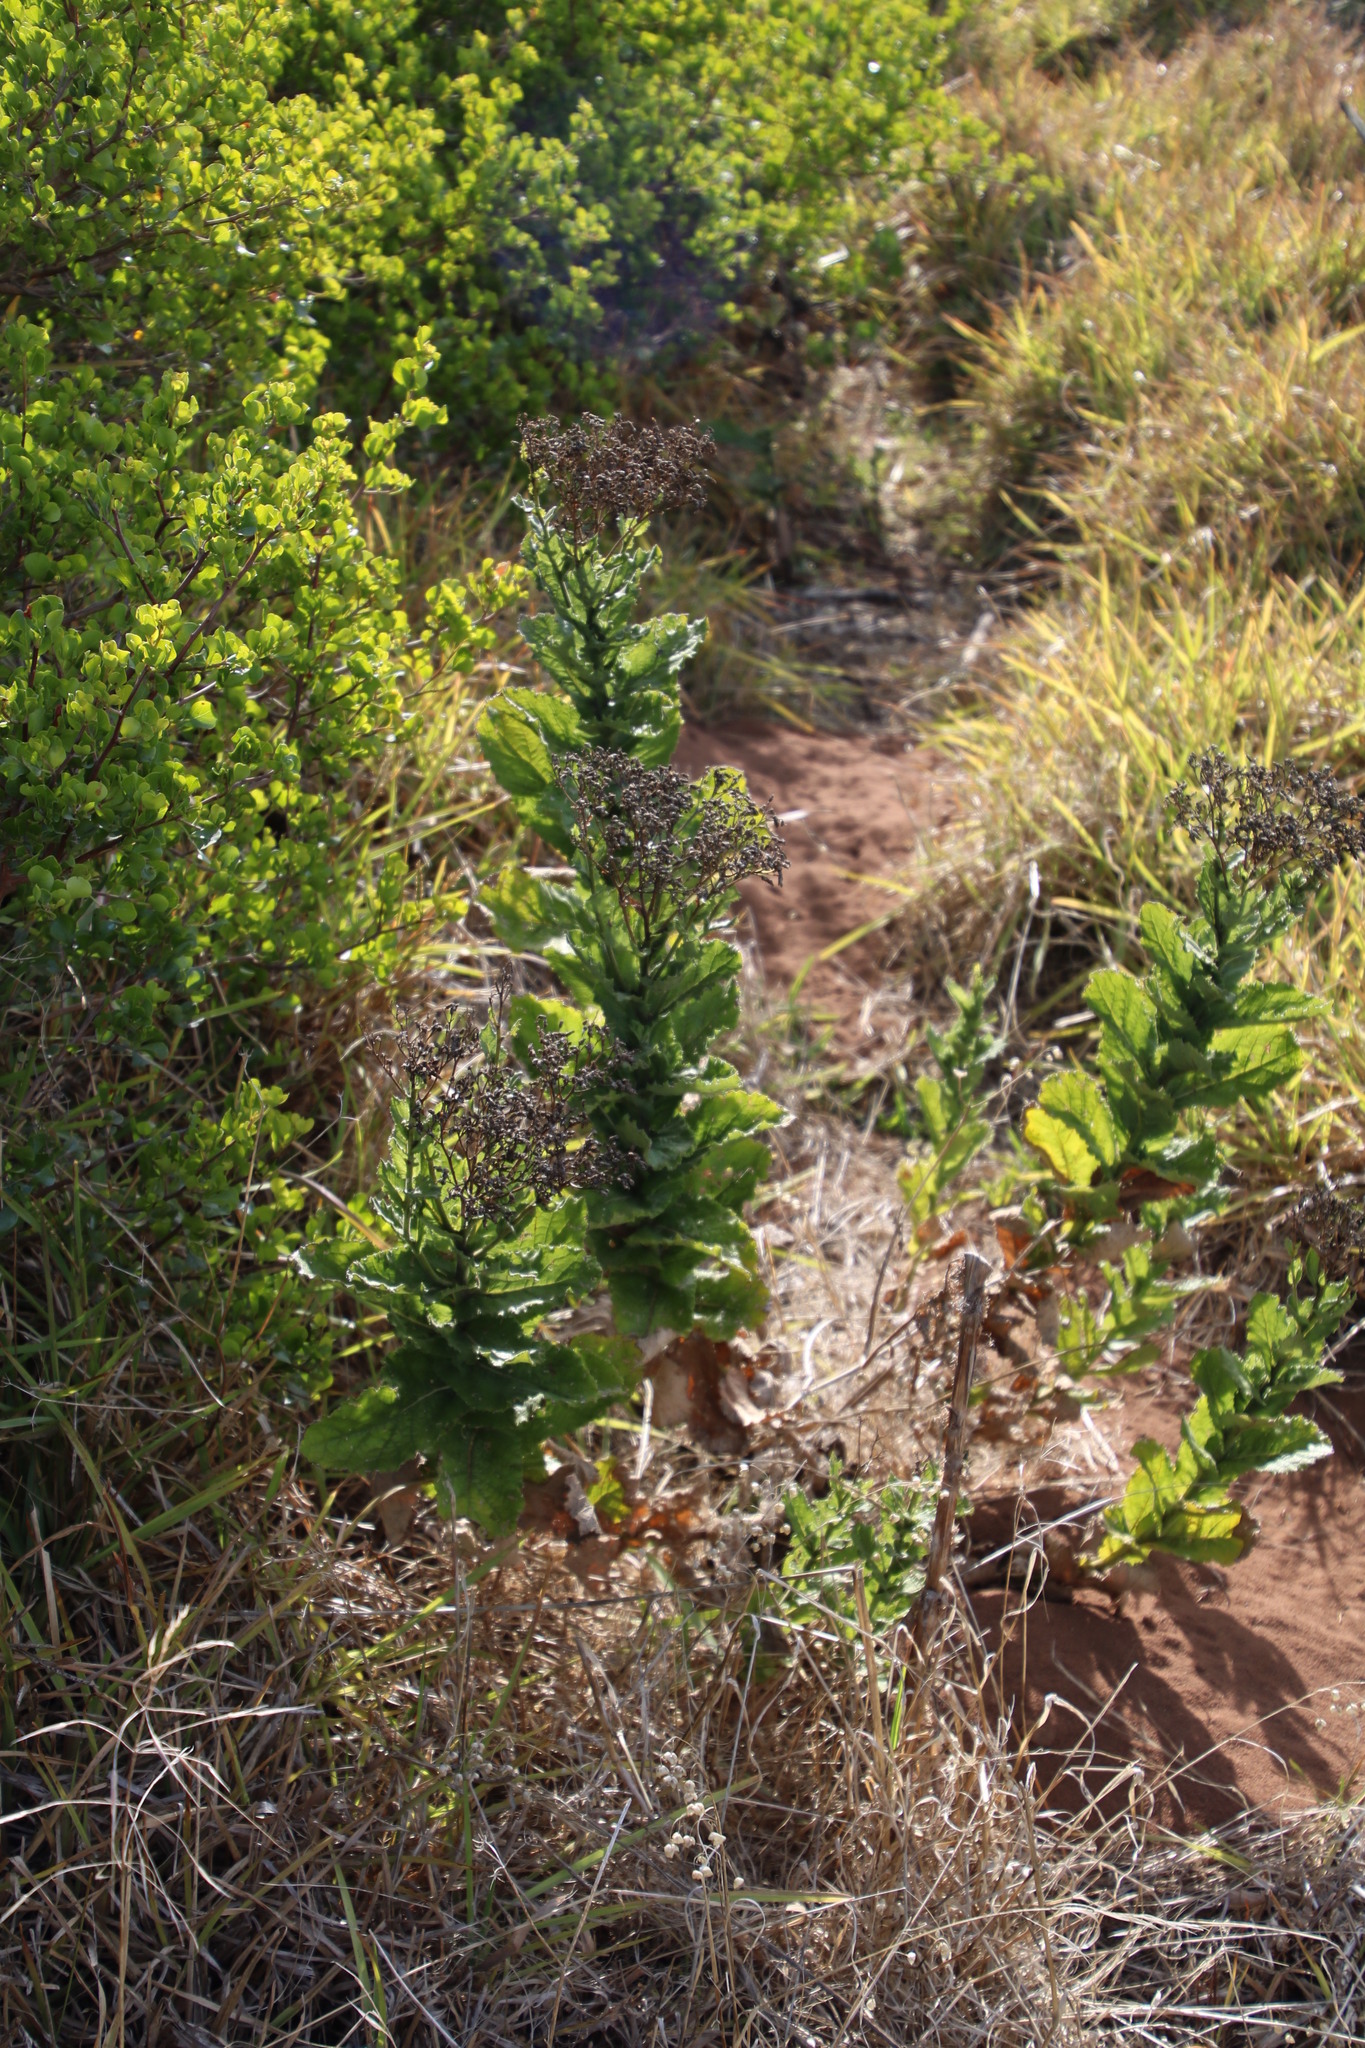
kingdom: Plantae
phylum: Tracheophyta
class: Magnoliopsida
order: Asterales
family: Asteraceae
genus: Senecio
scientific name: Senecio rigidus
